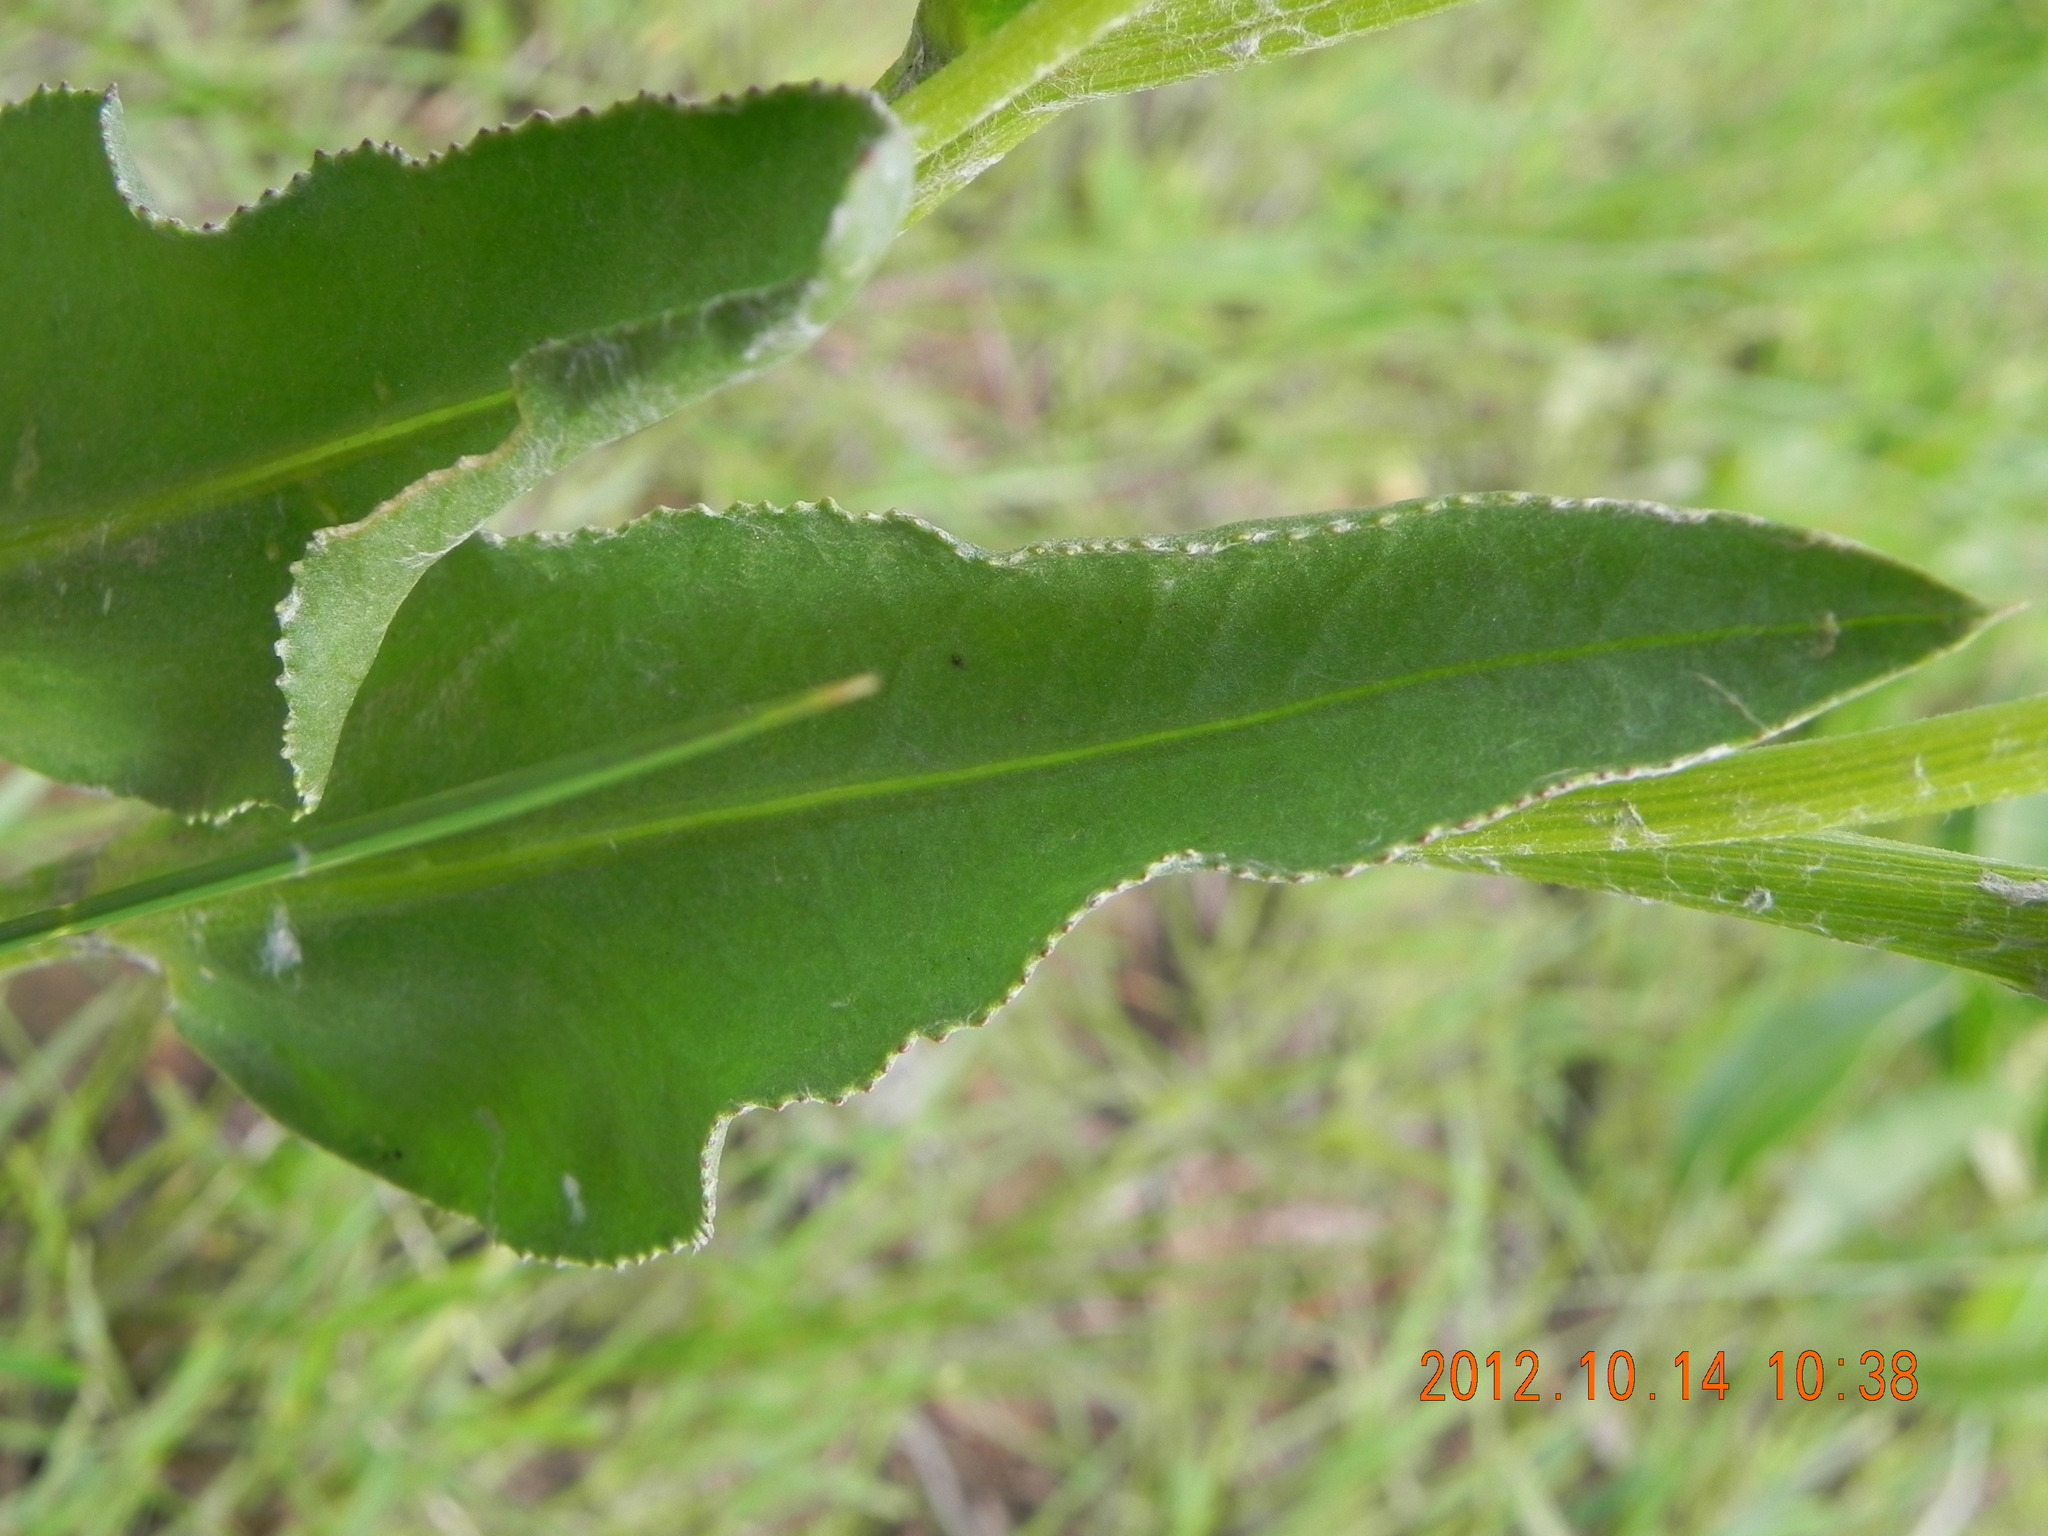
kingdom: Plantae
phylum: Tracheophyta
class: Magnoliopsida
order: Asterales
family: Asteraceae
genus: Senecio
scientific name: Senecio coronatus
